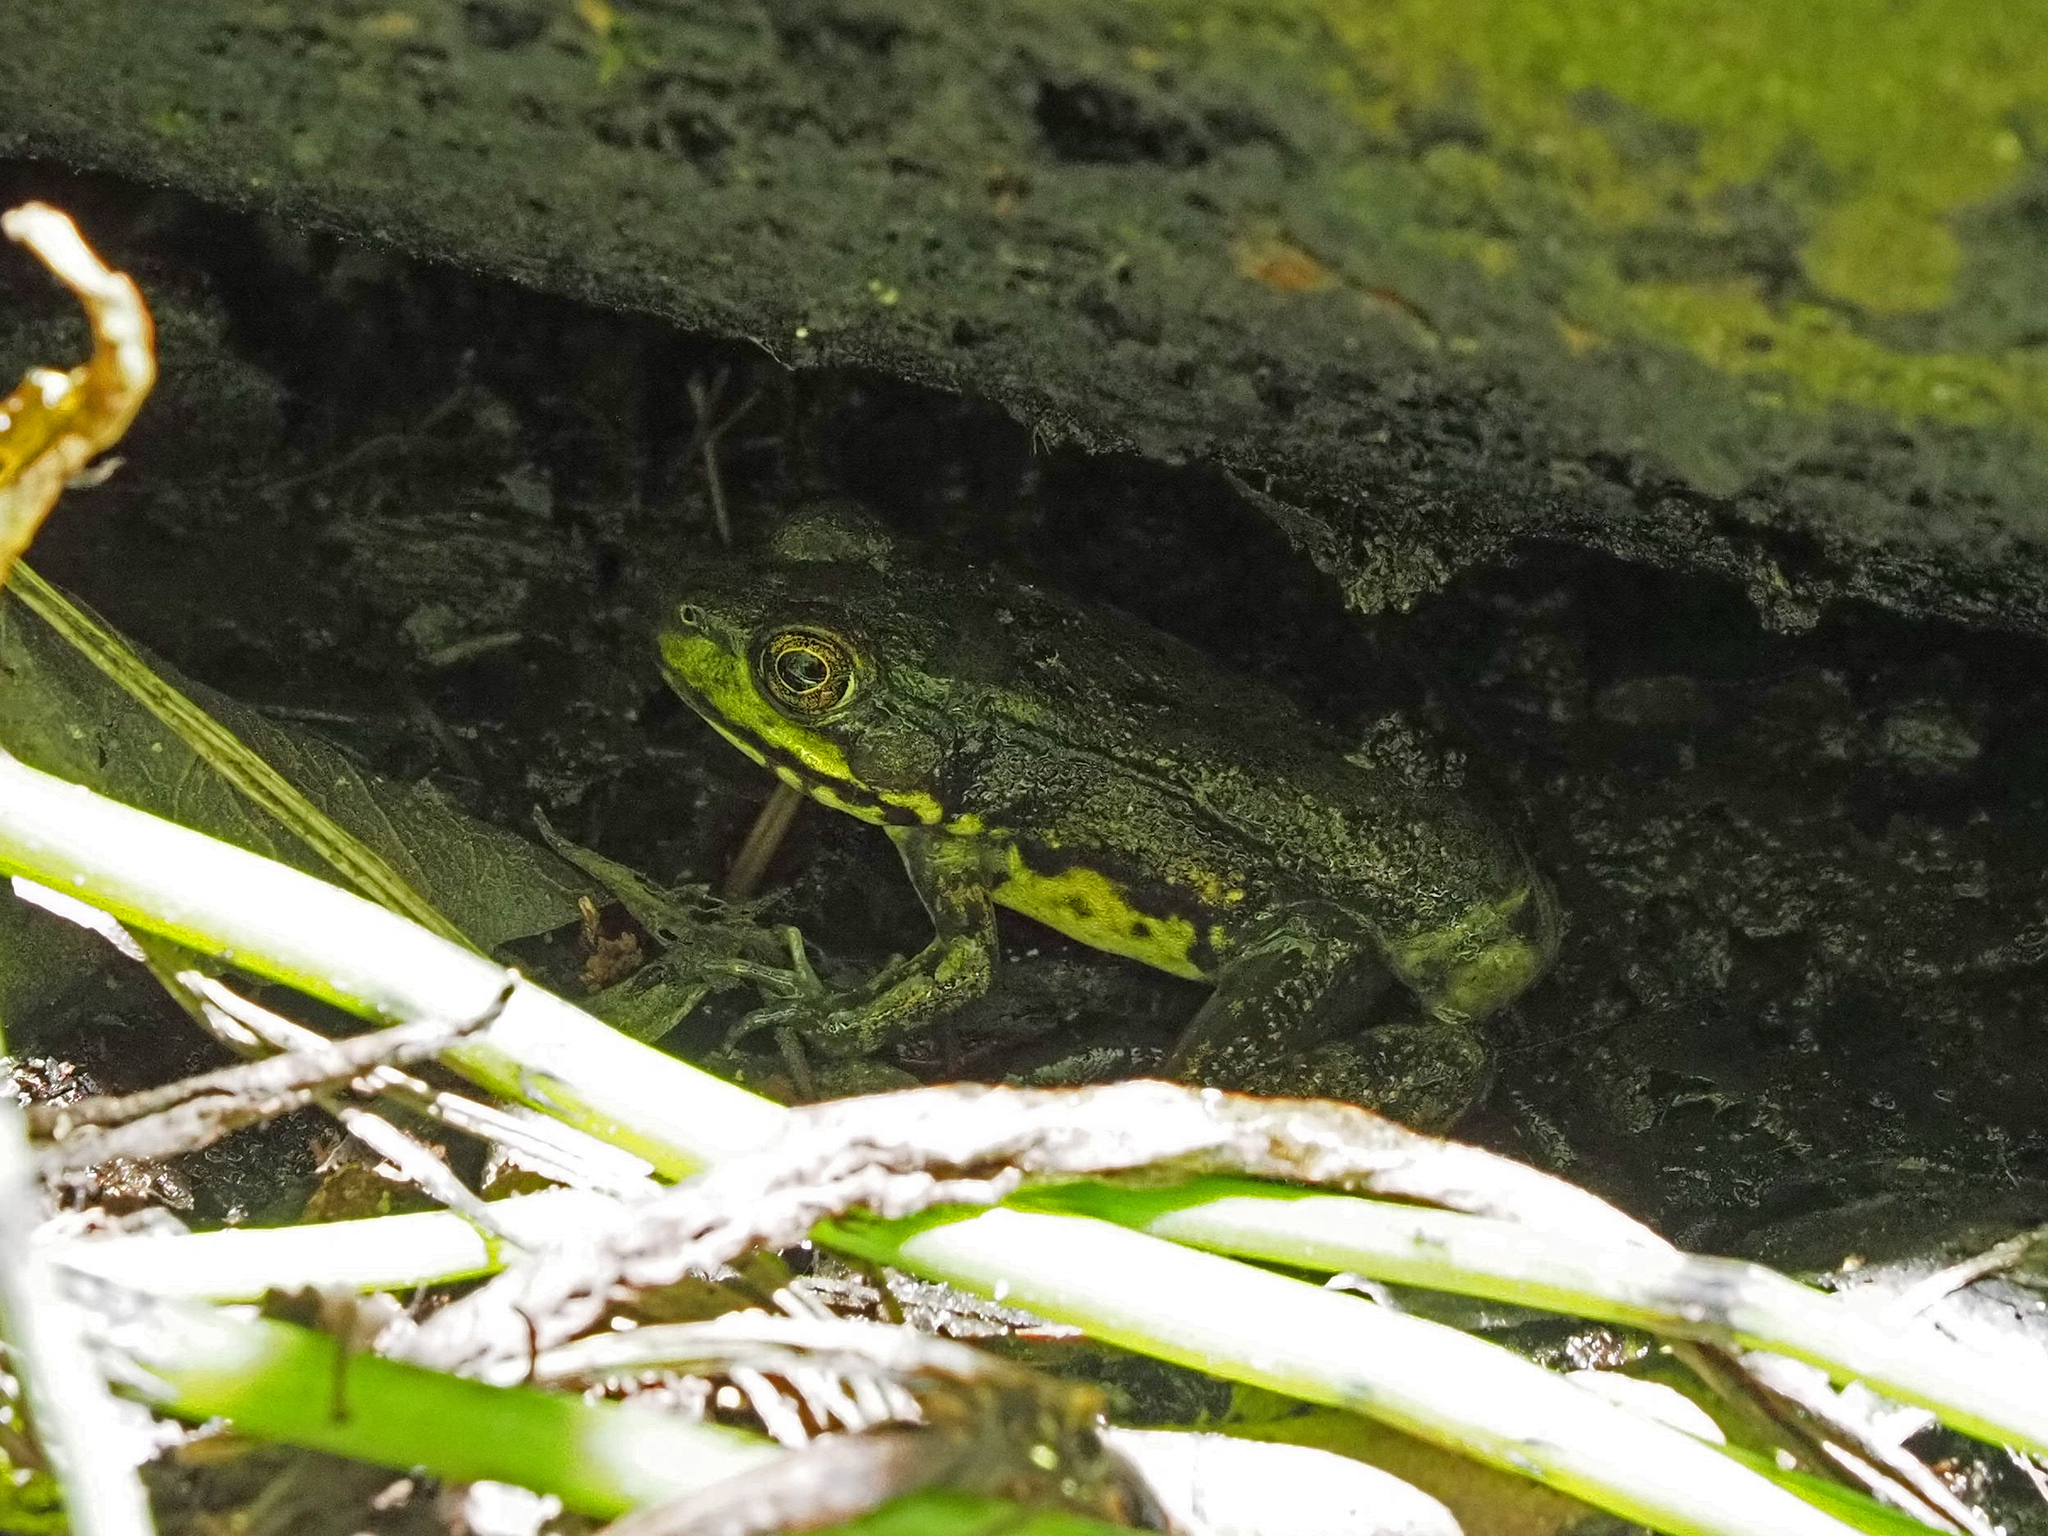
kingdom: Animalia
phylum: Chordata
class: Amphibia
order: Anura
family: Ranidae
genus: Lithobates
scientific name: Lithobates clamitans
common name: Green frog
